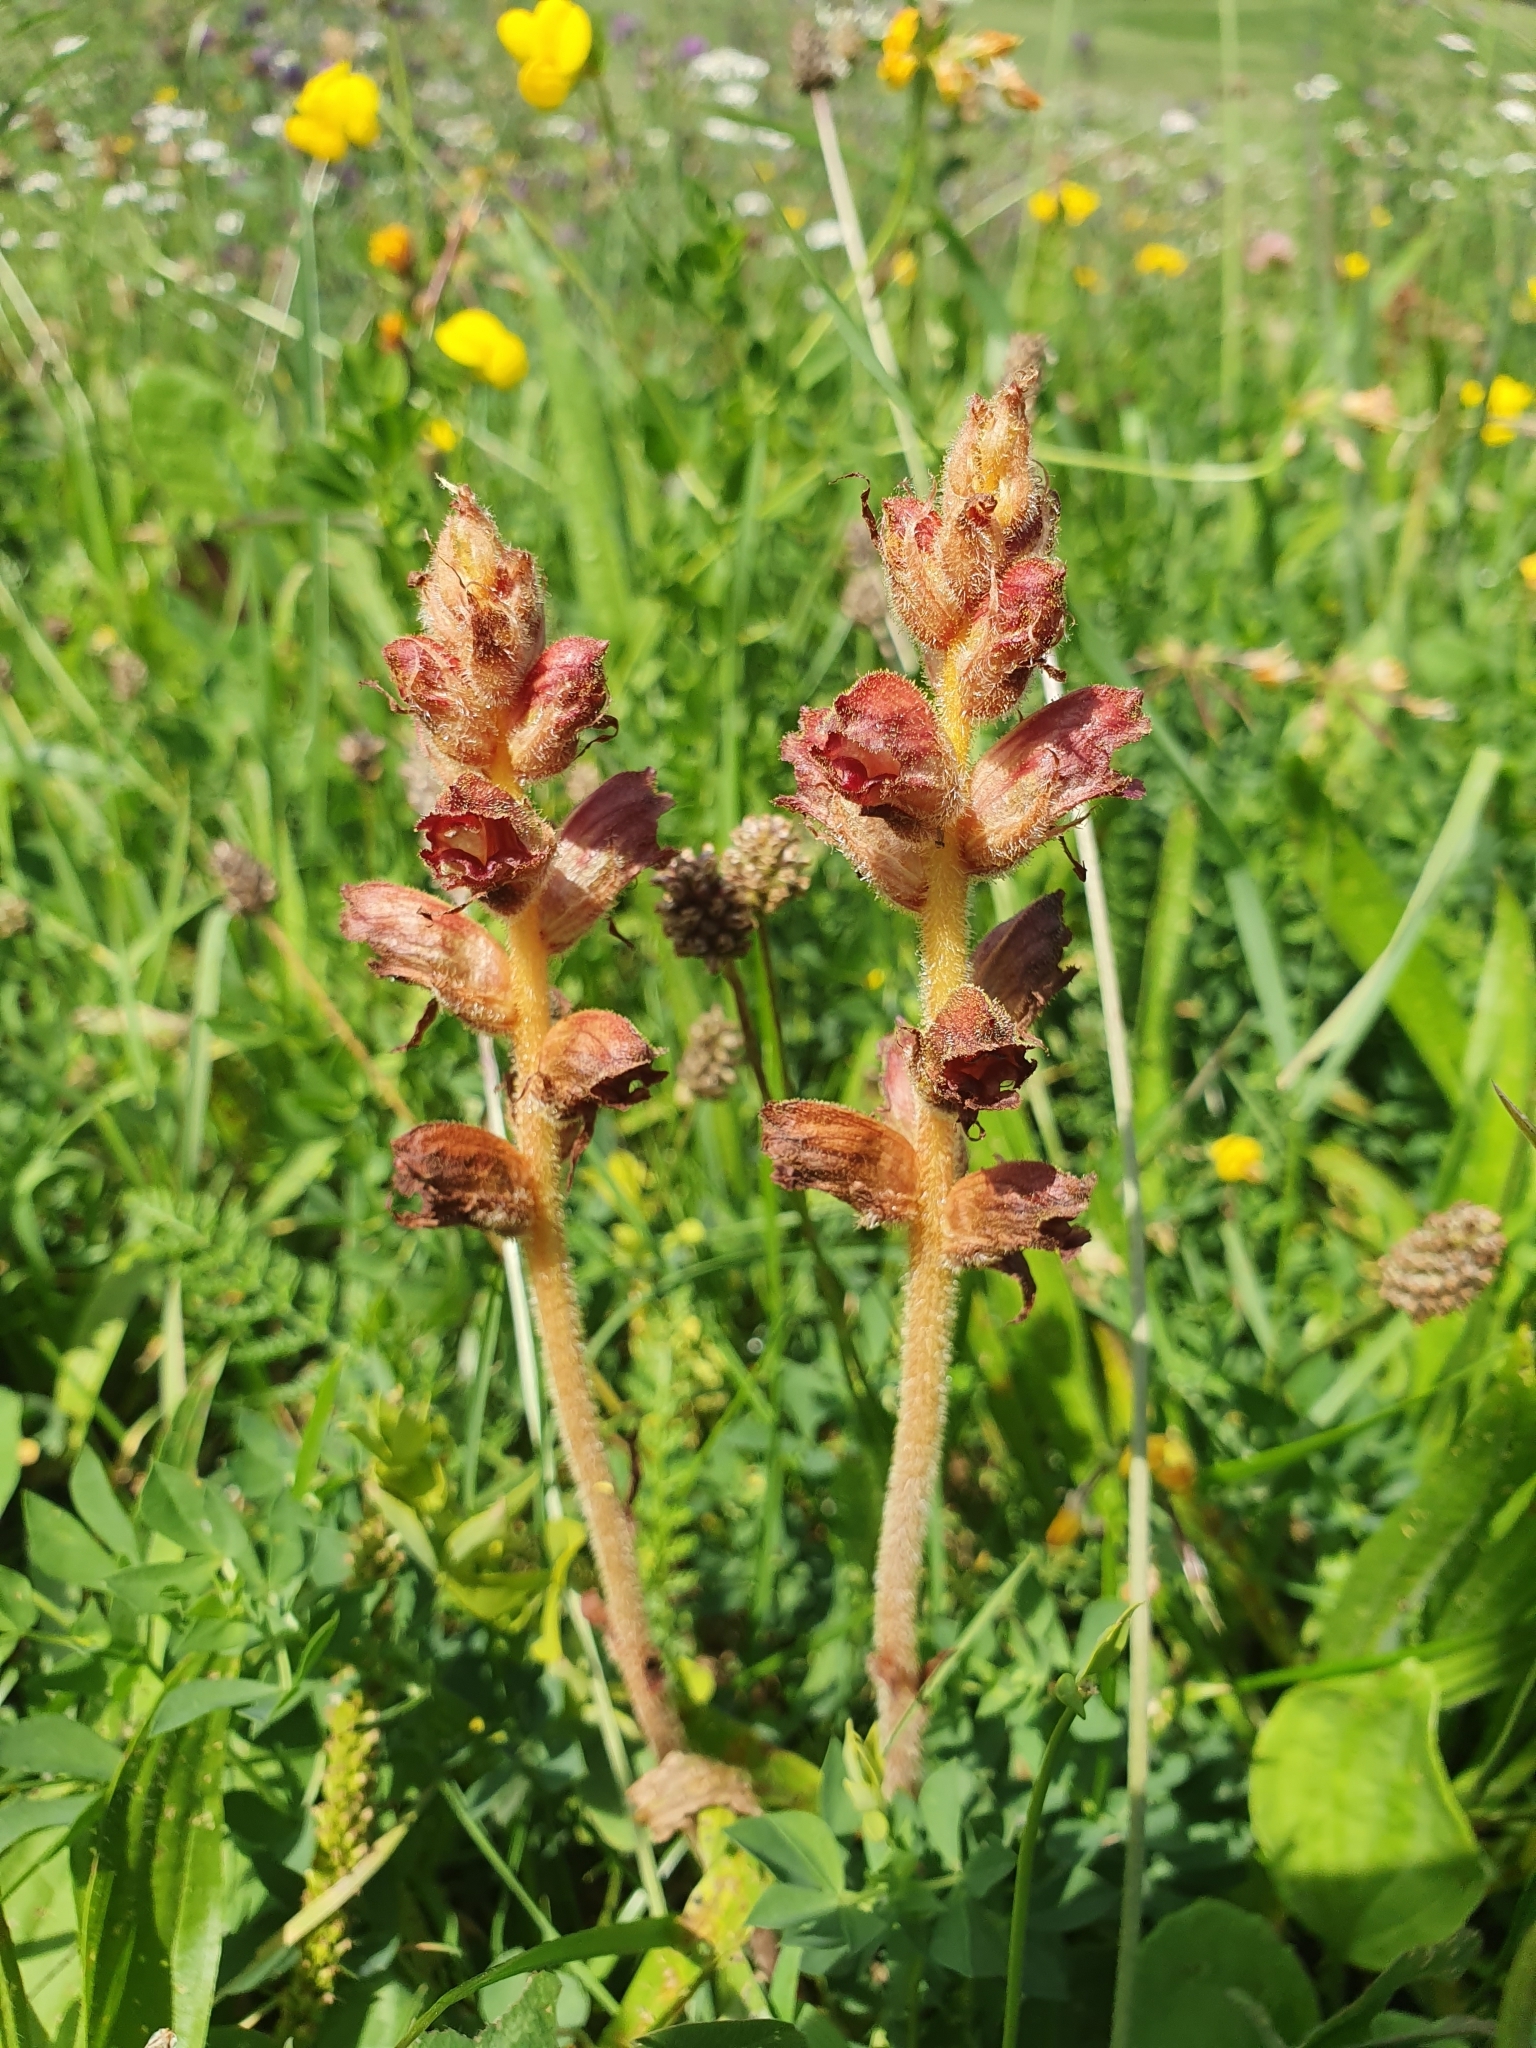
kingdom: Plantae
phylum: Tracheophyta
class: Magnoliopsida
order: Lamiales
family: Orobanchaceae
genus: Orobanche
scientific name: Orobanche gracilis
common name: Slender broomrape
